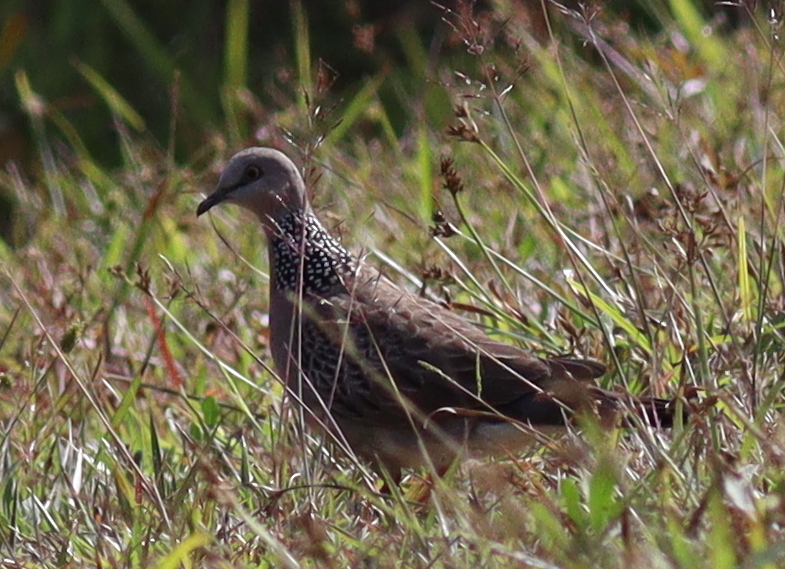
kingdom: Animalia
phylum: Chordata
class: Aves
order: Columbiformes
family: Columbidae
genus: Spilopelia
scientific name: Spilopelia chinensis
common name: Spotted dove
